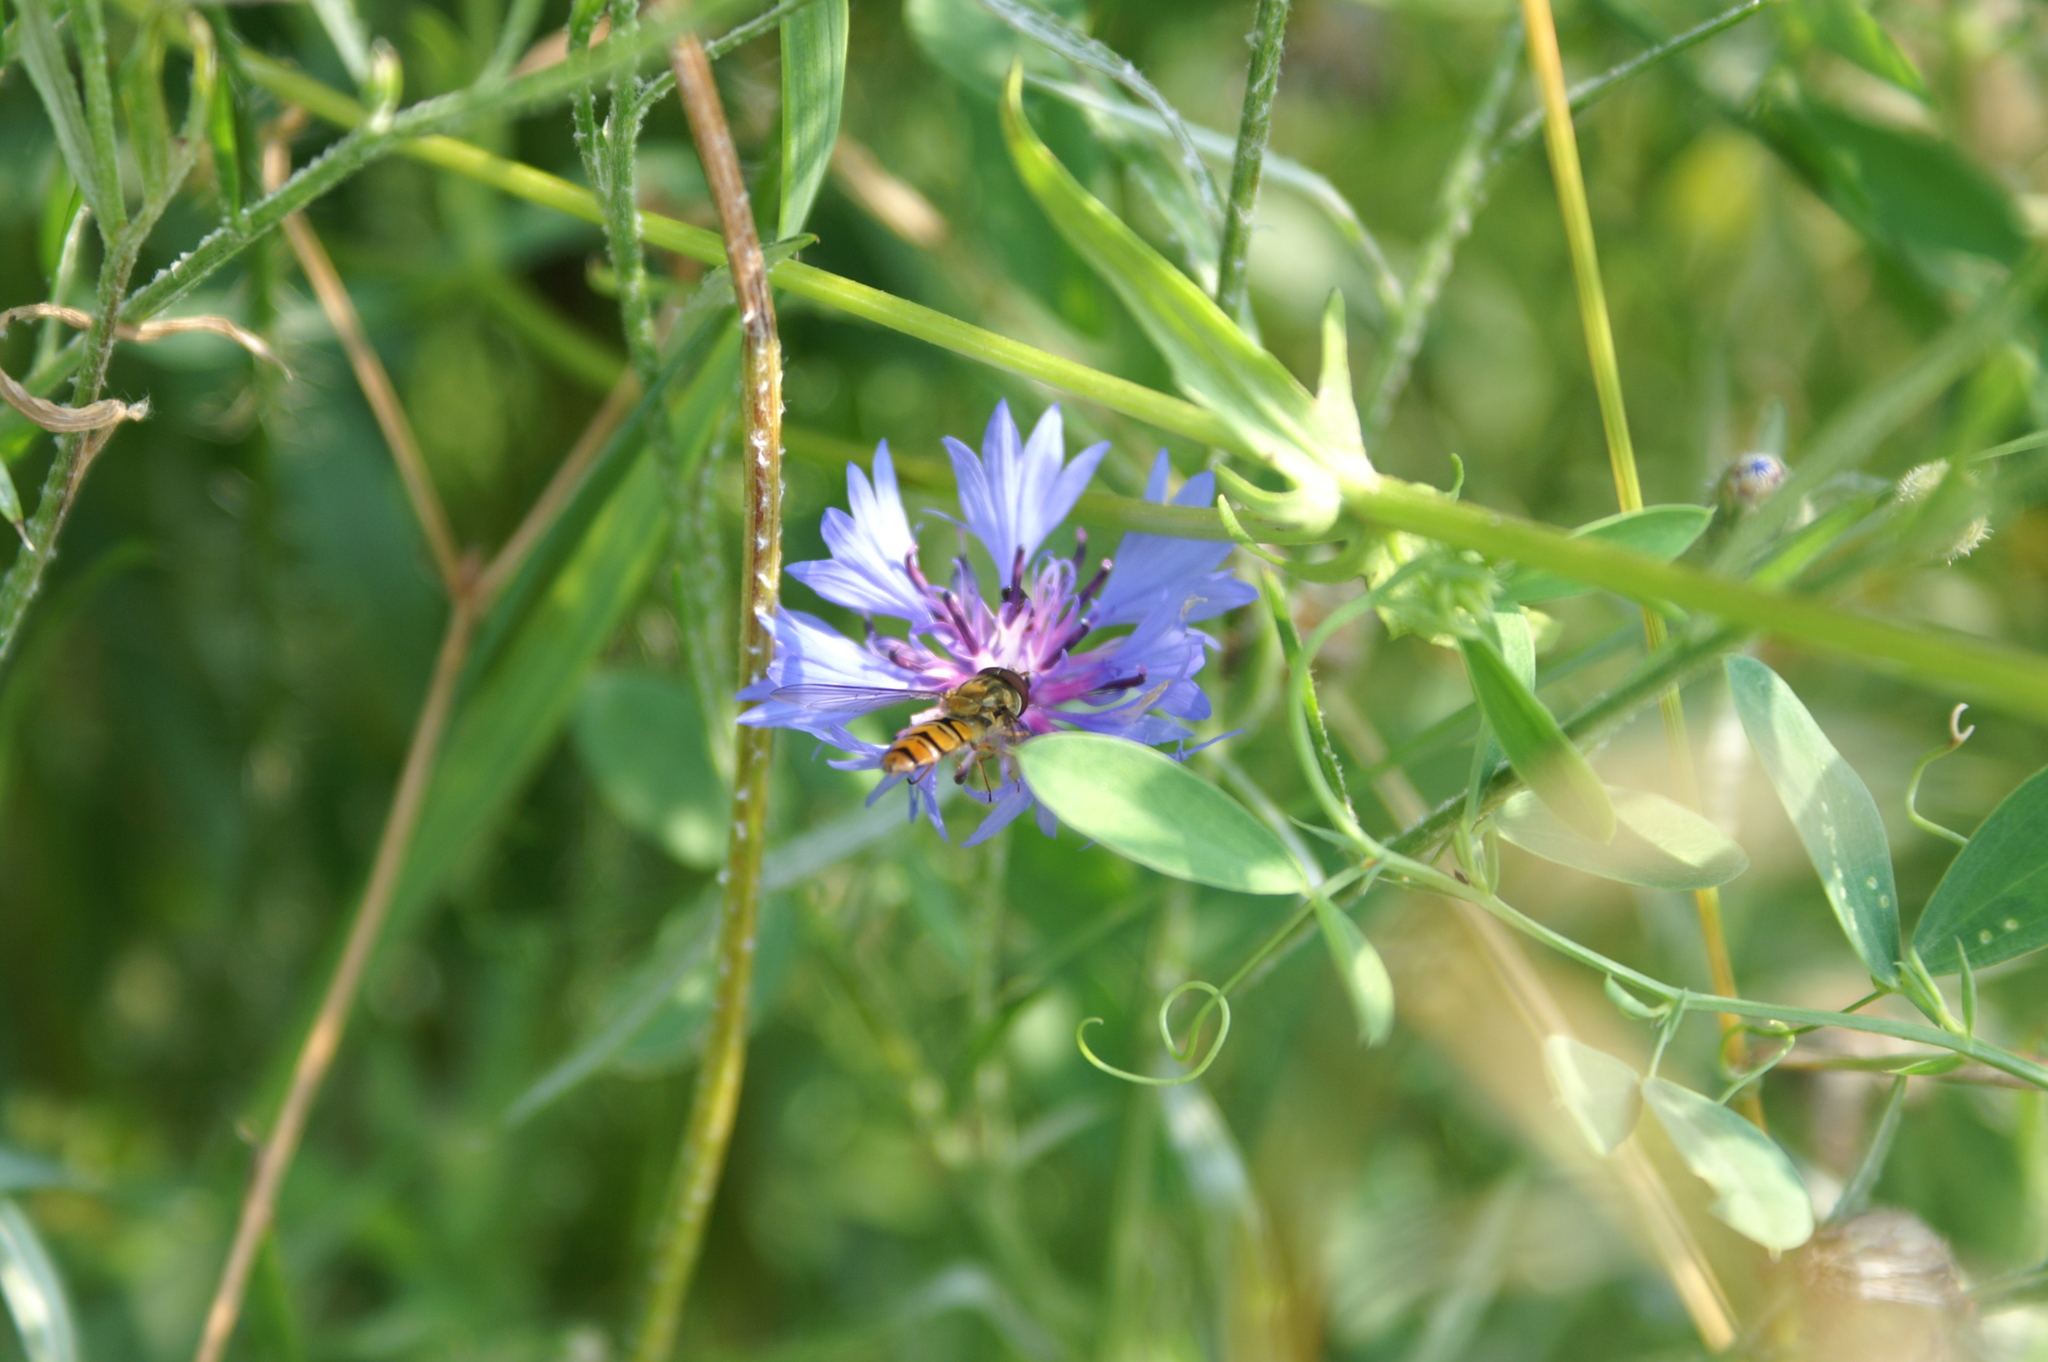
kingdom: Animalia
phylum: Arthropoda
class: Insecta
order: Diptera
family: Syrphidae
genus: Episyrphus
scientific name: Episyrphus balteatus
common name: Marmalade hoverfly
